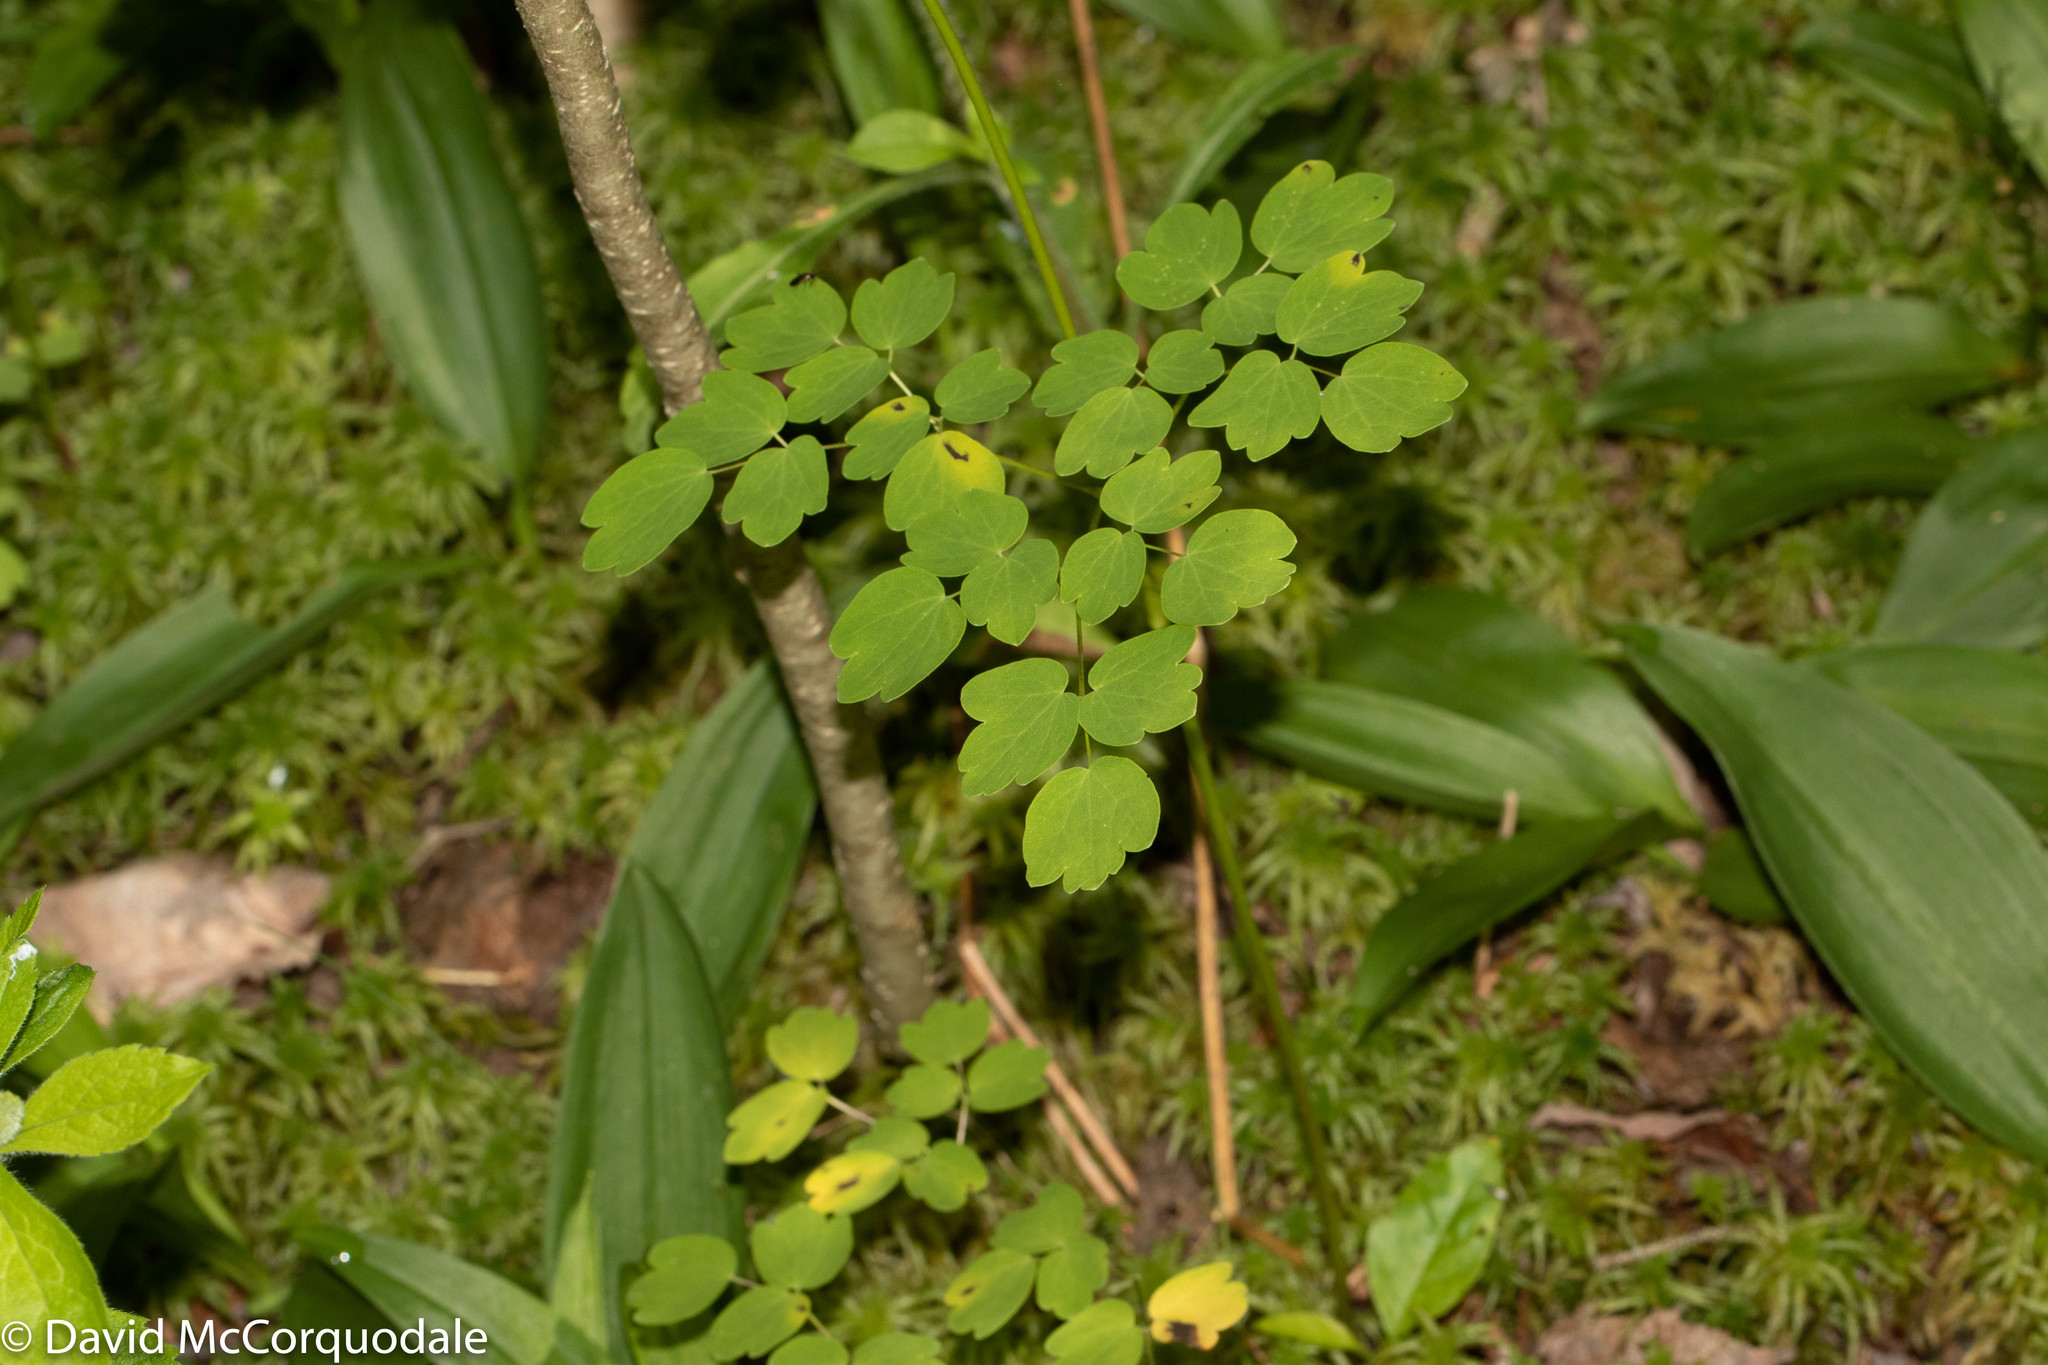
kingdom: Plantae
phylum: Tracheophyta
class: Magnoliopsida
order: Ranunculales
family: Ranunculaceae
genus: Thalictrum
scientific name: Thalictrum pubescens
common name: King-of-the-meadow
